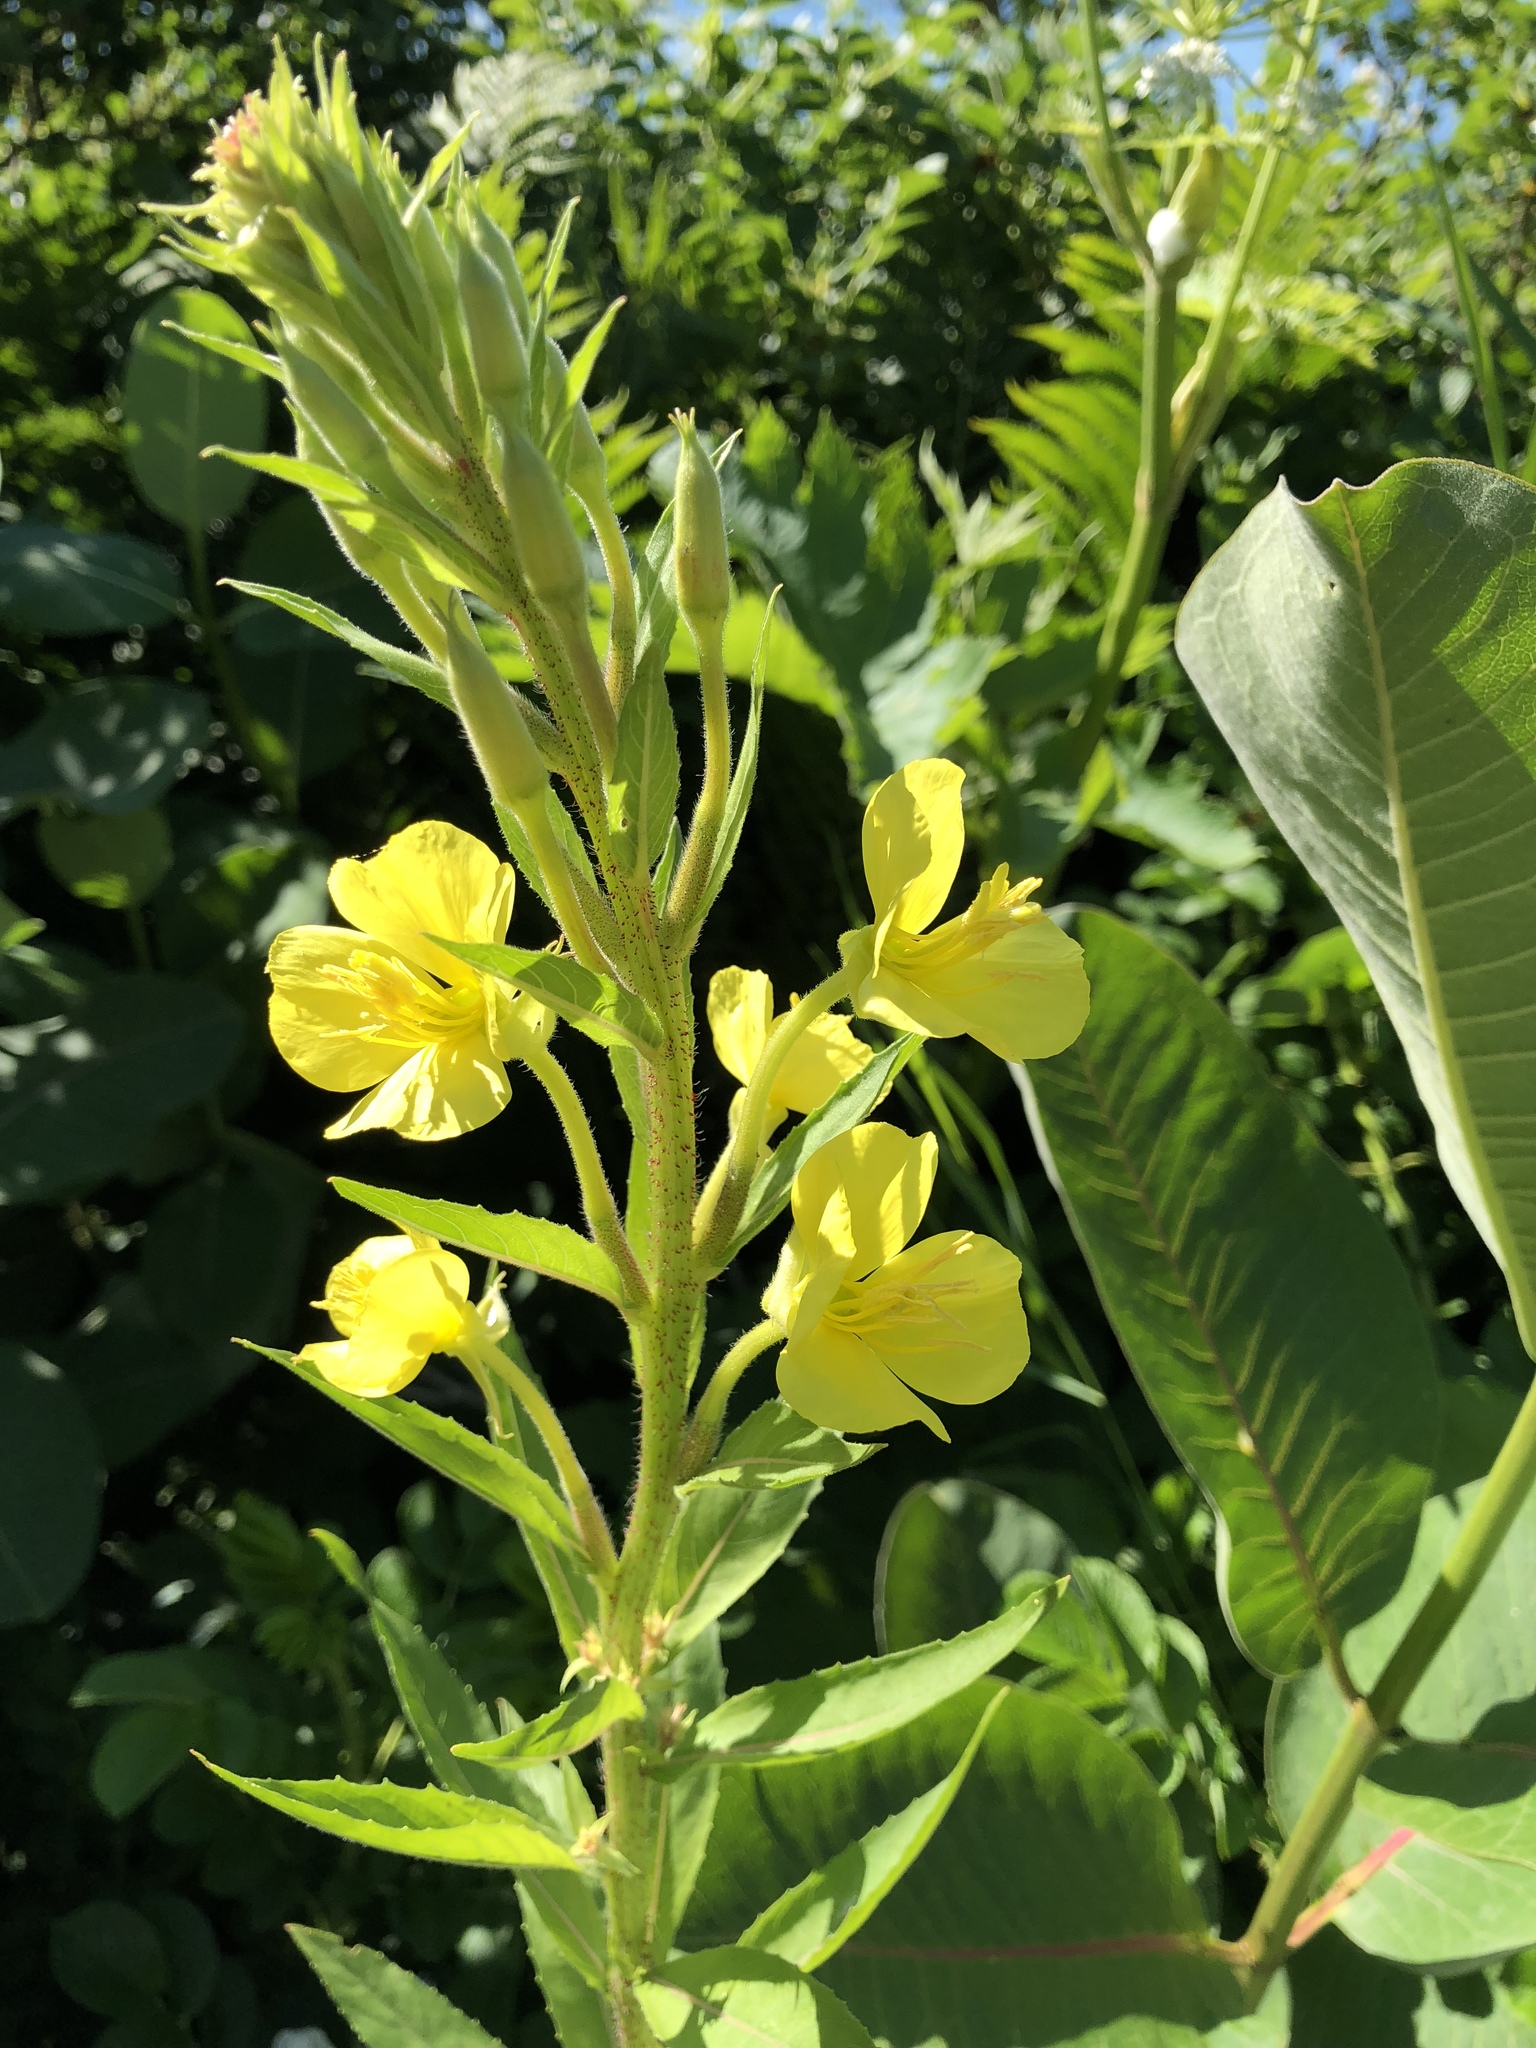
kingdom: Plantae
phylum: Tracheophyta
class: Magnoliopsida
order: Myrtales
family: Onagraceae
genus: Oenothera
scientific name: Oenothera biennis
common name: Common evening-primrose
